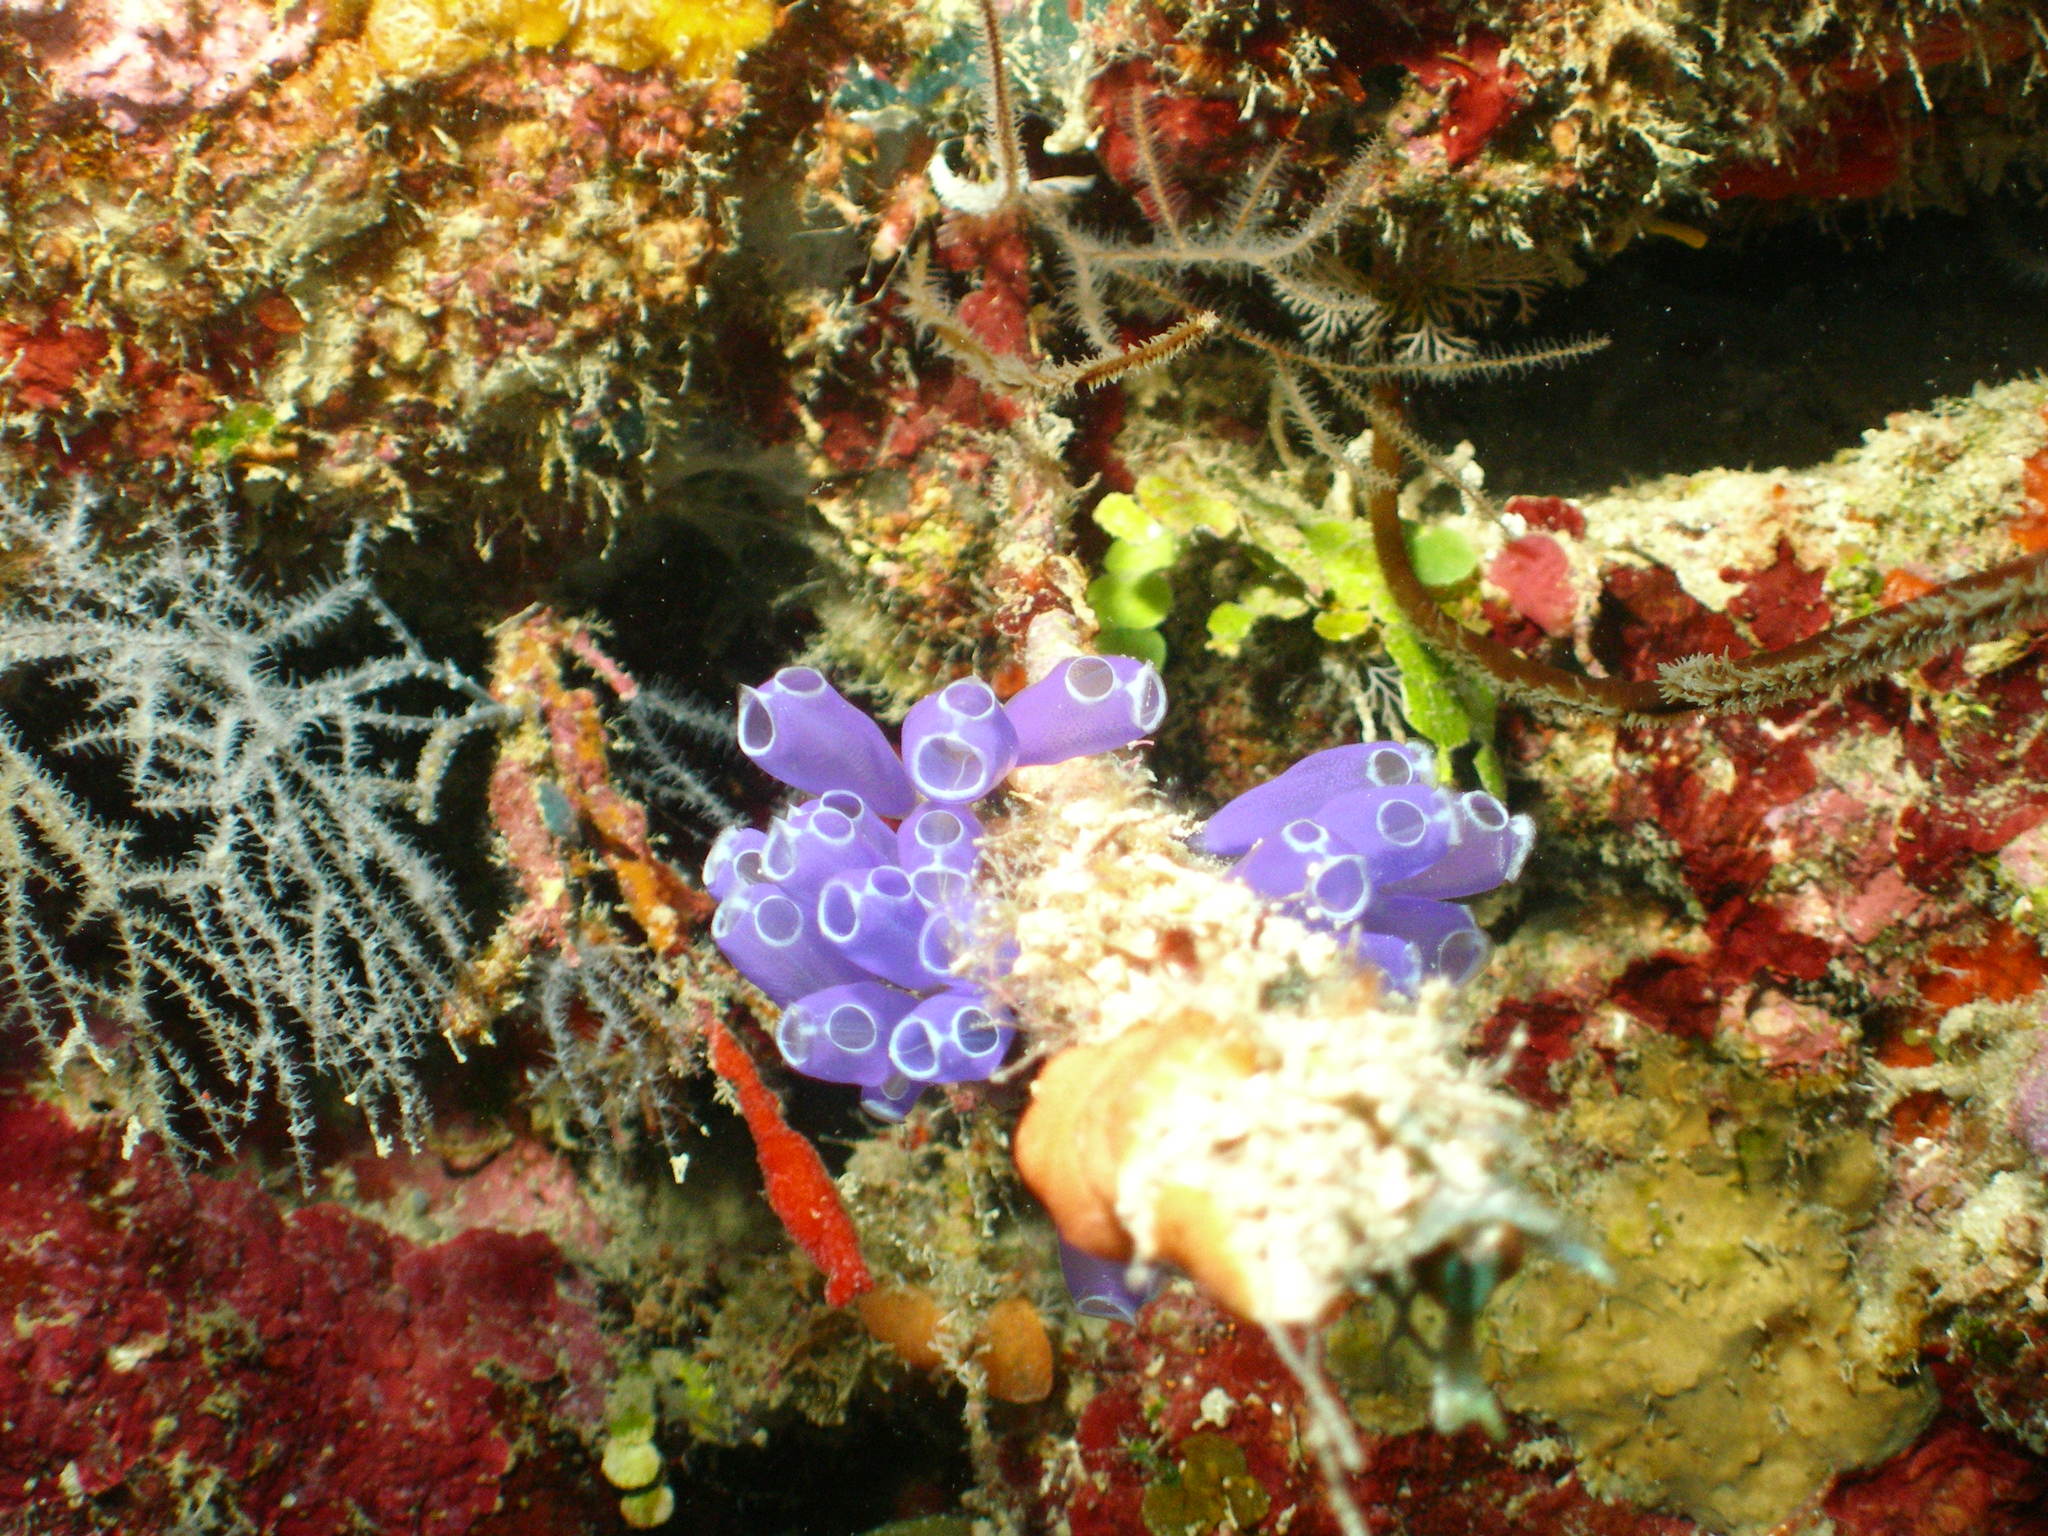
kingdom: Animalia
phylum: Chordata
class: Ascidiacea
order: Aplousobranchia
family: Clavelinidae
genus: Clavelina
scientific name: Clavelina puertosecensis
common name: Blue bell tunicate
